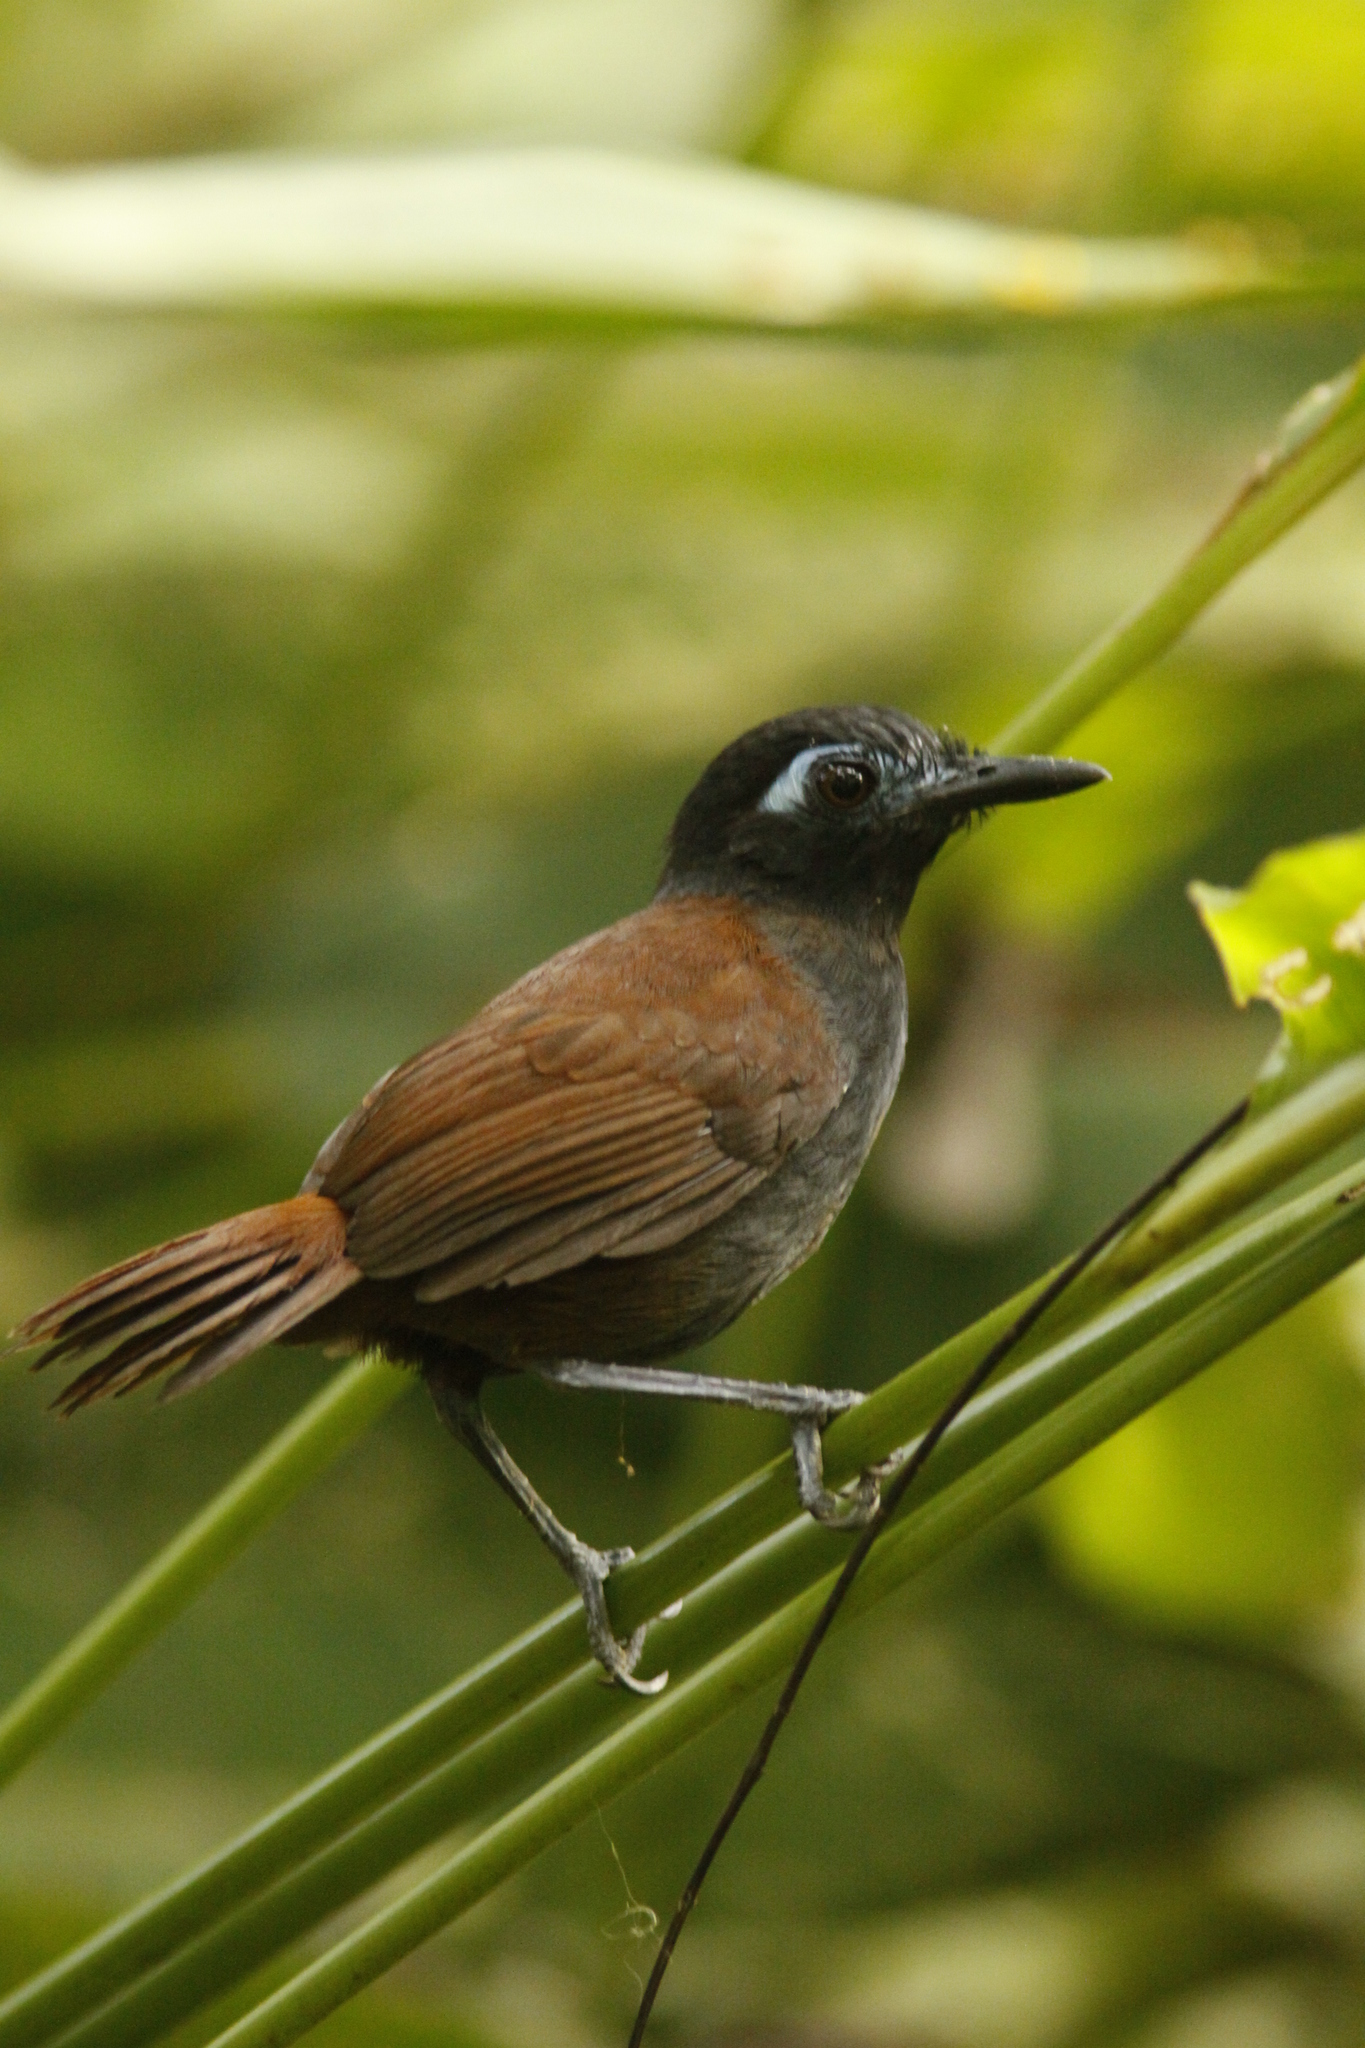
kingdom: Animalia
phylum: Chordata
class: Aves
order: Passeriformes
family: Thamnophilidae
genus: Myrmeciza
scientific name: Myrmeciza exsul
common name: Chestnut-backed antbird
